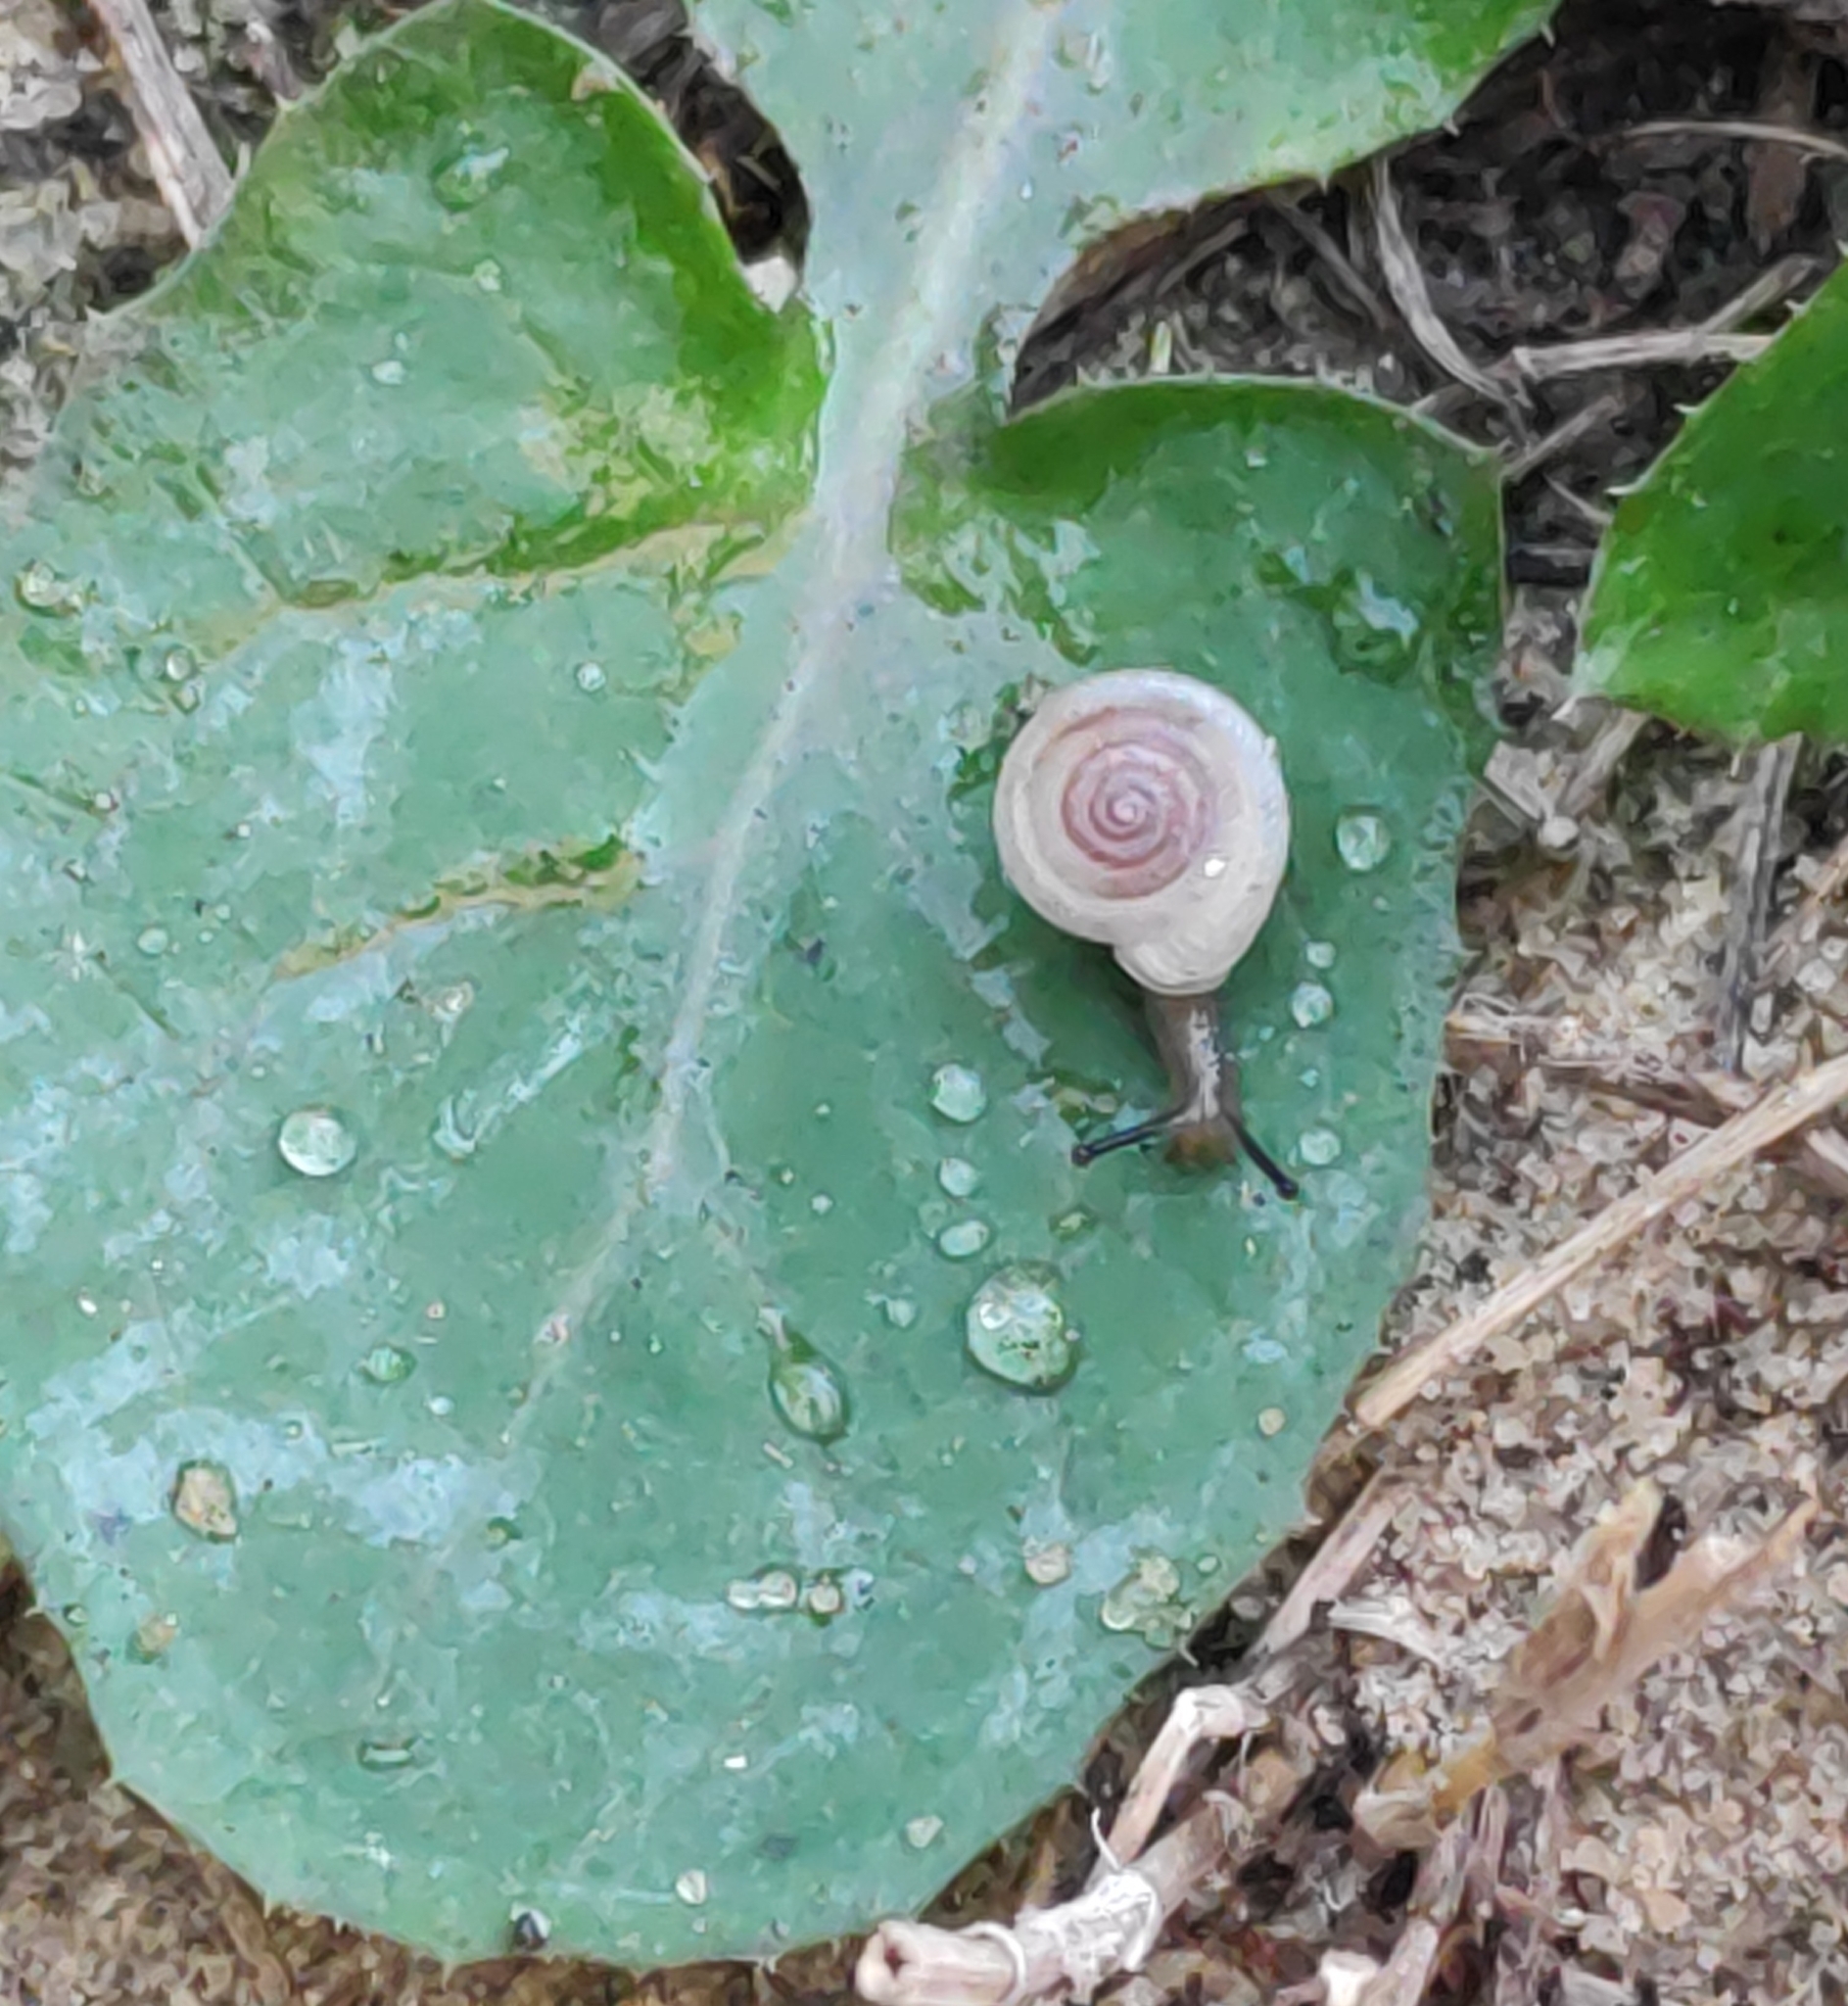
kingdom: Animalia
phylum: Mollusca
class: Gastropoda
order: Stylommatophora
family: Polygyridae
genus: Polygyra
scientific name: Polygyra cereolus
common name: Southern flatcone snail
